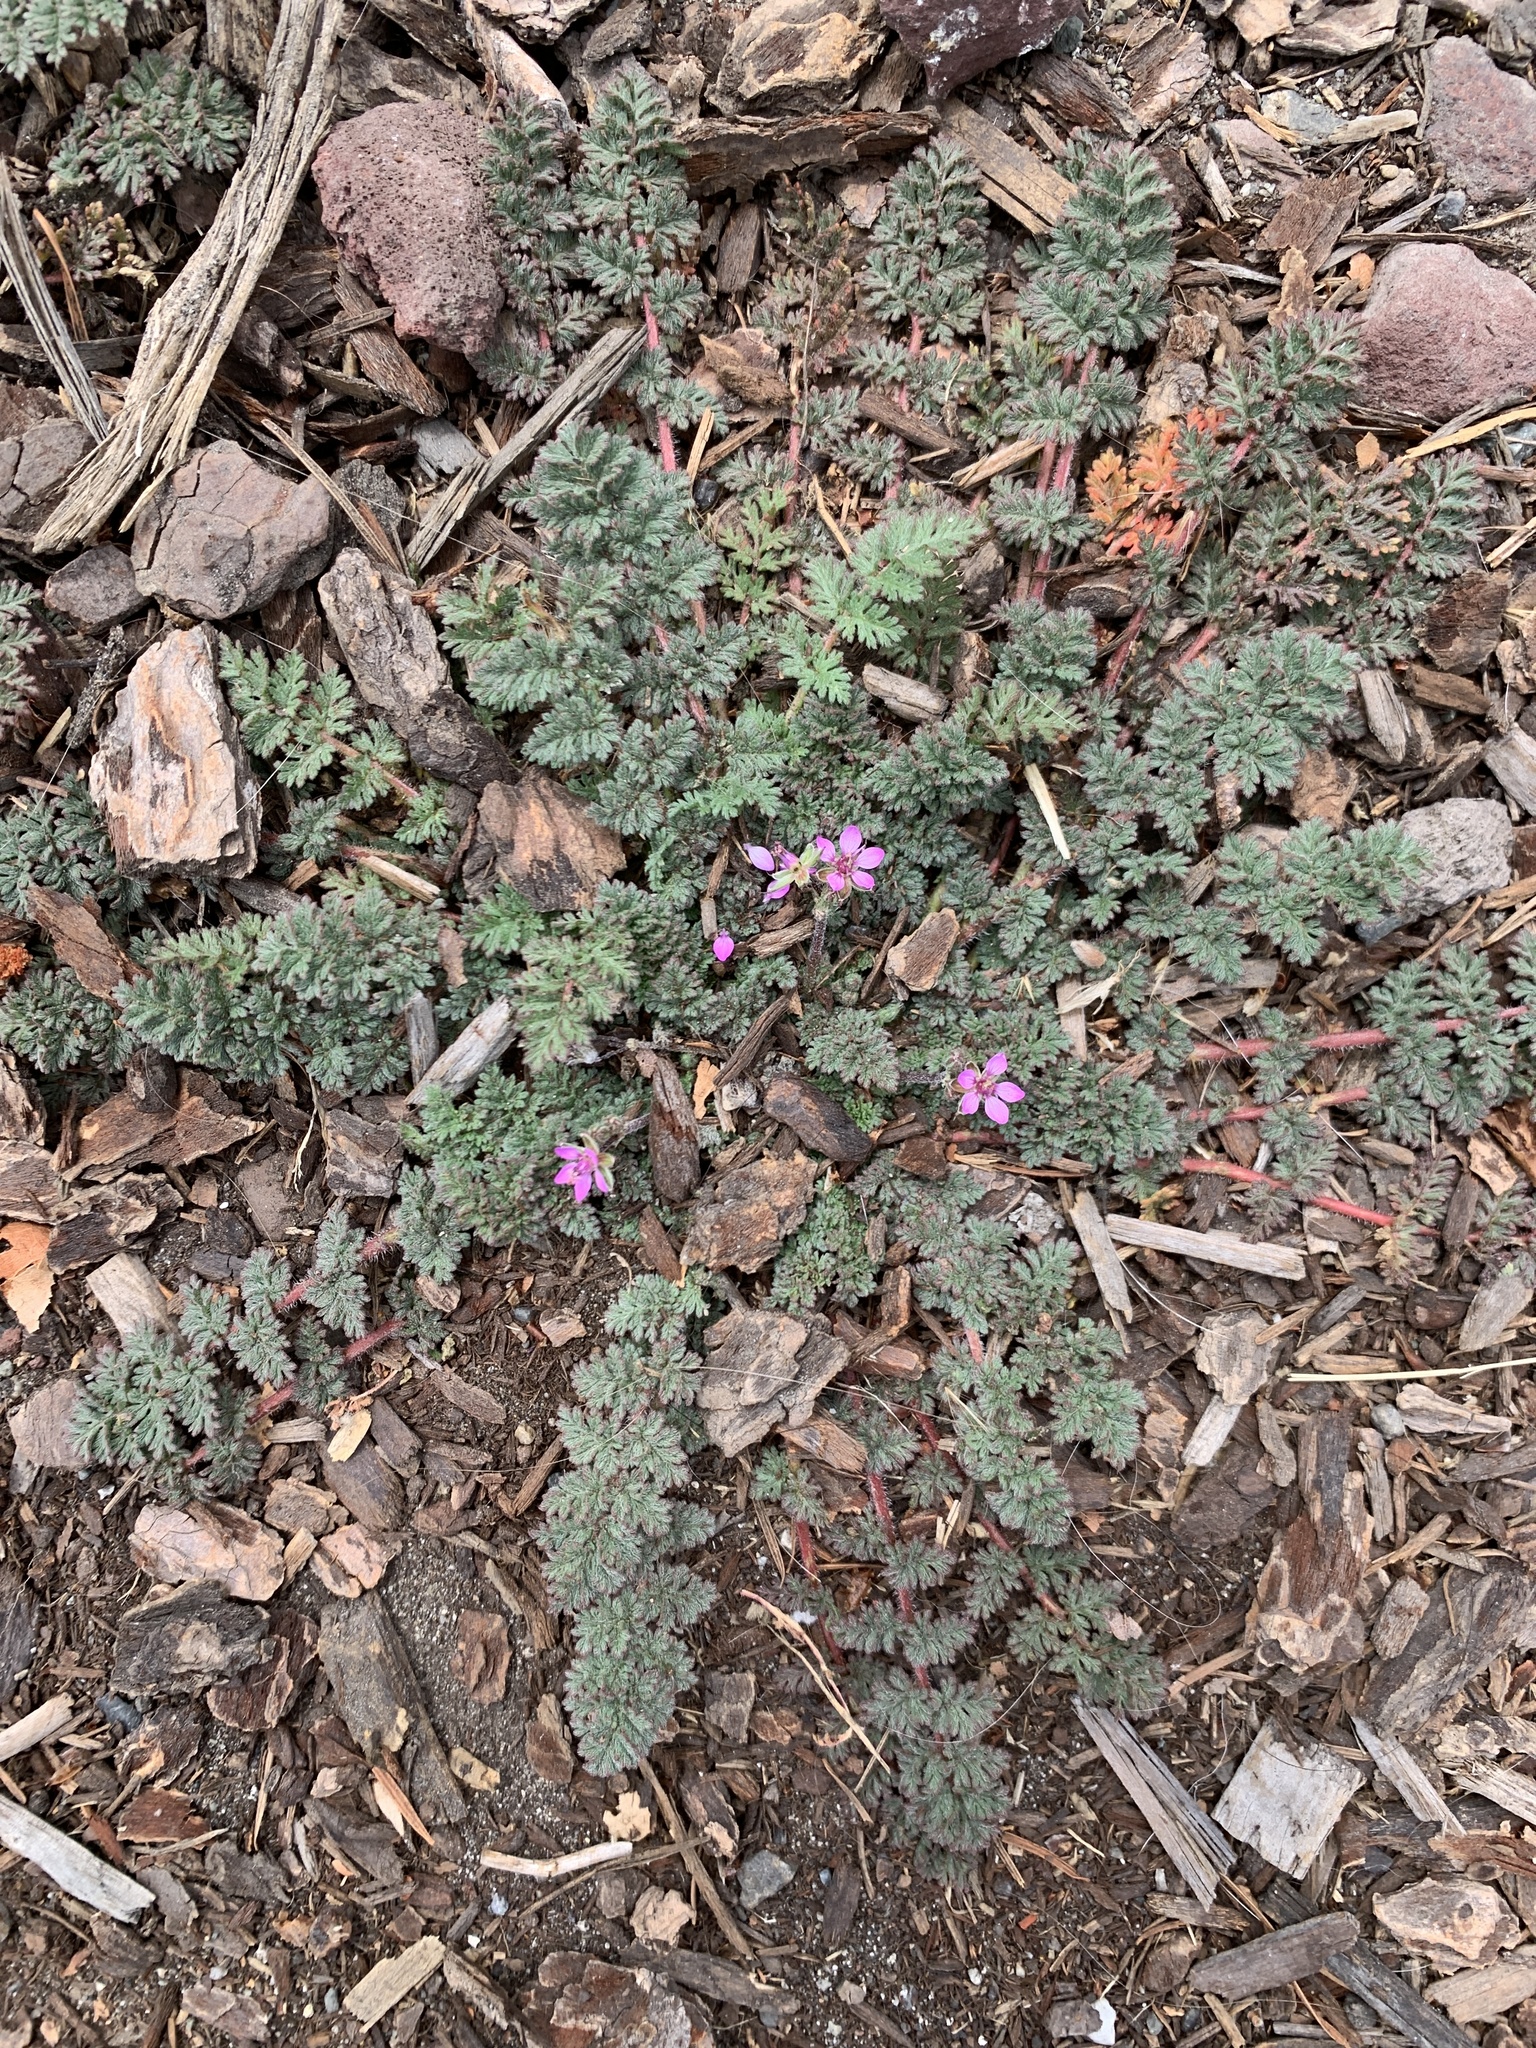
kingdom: Plantae
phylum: Tracheophyta
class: Magnoliopsida
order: Geraniales
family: Geraniaceae
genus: Erodium
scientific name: Erodium cicutarium
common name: Common stork's-bill
